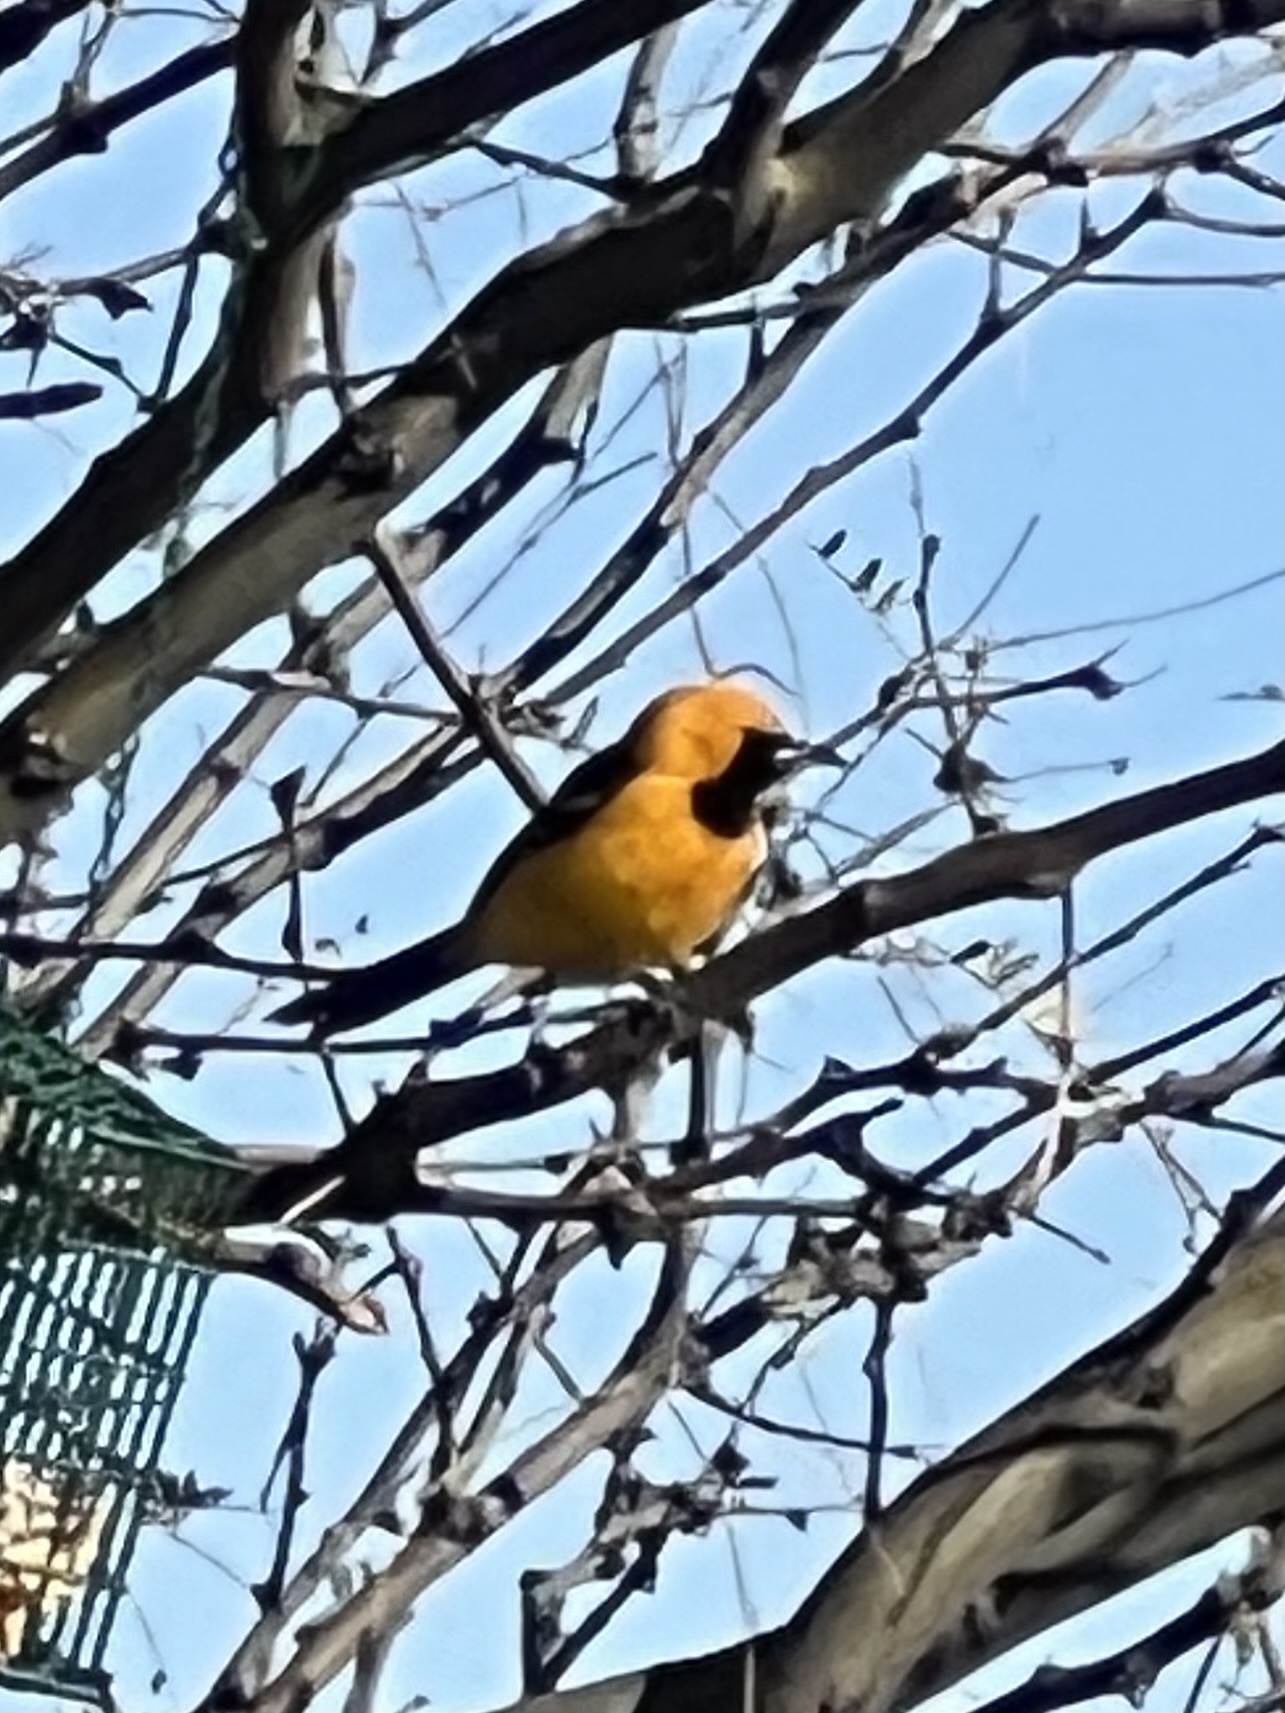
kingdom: Animalia
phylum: Chordata
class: Aves
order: Passeriformes
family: Icteridae
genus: Icterus
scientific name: Icterus cucullatus
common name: Hooded oriole
